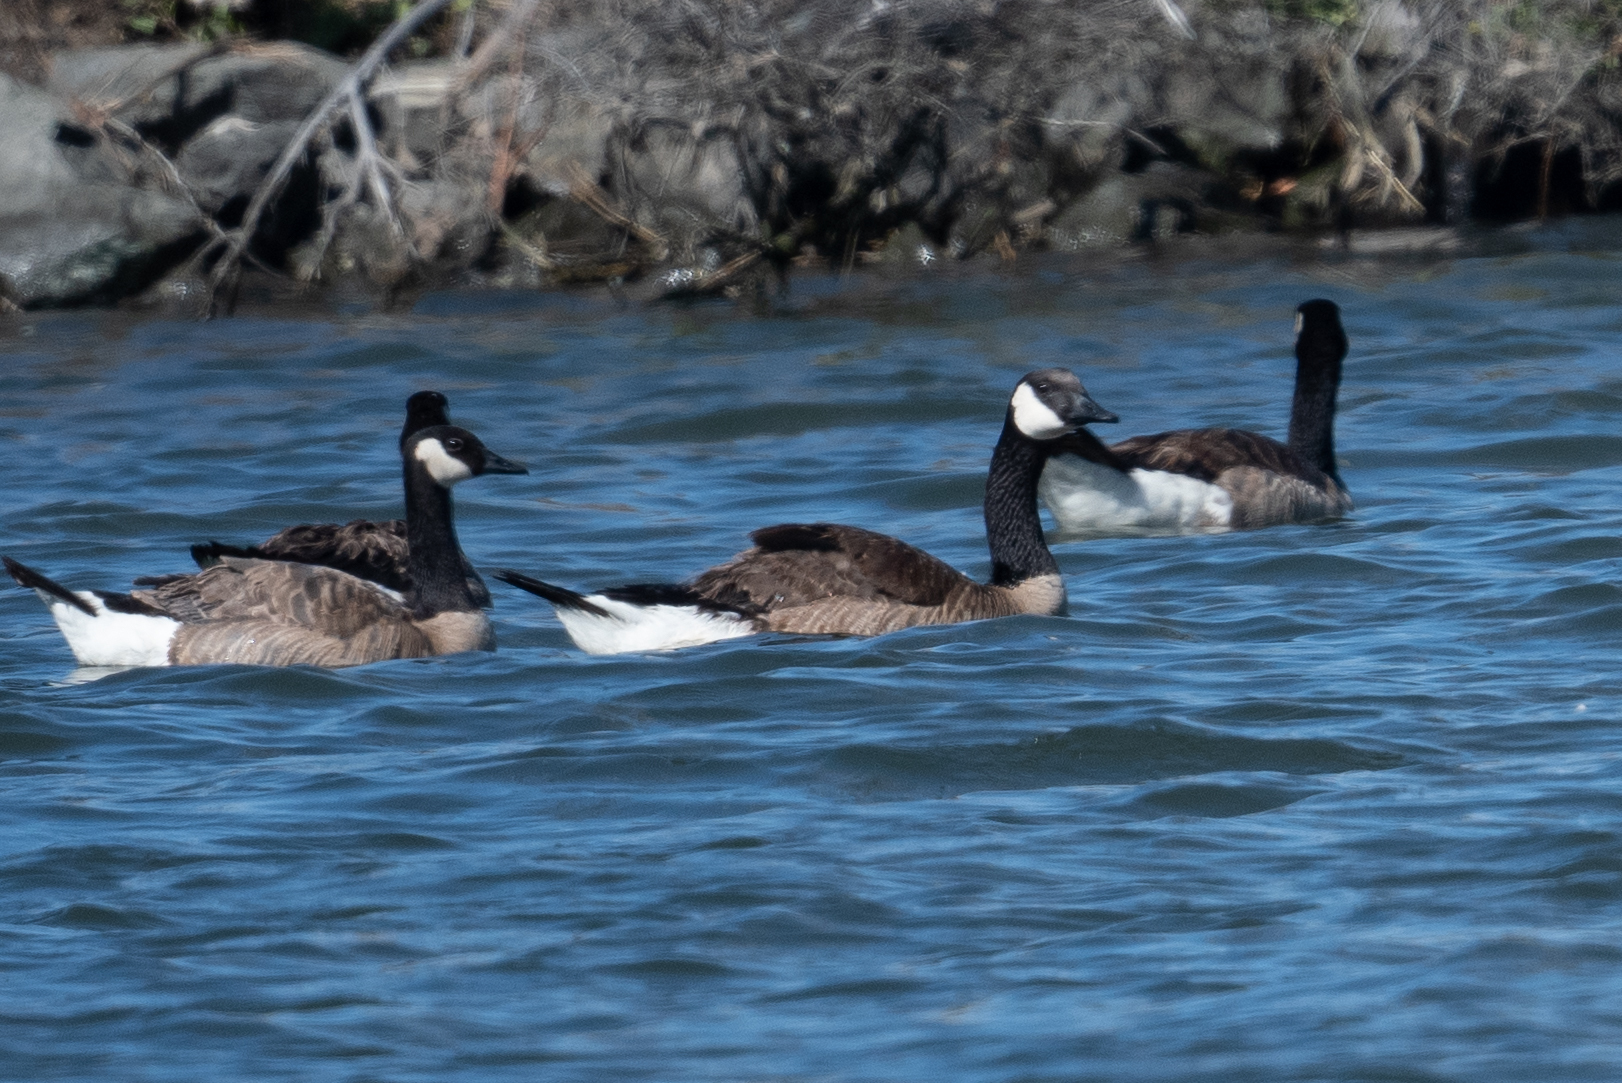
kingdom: Animalia
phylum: Chordata
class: Aves
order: Anseriformes
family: Anatidae
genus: Branta
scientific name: Branta canadensis
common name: Canada goose
